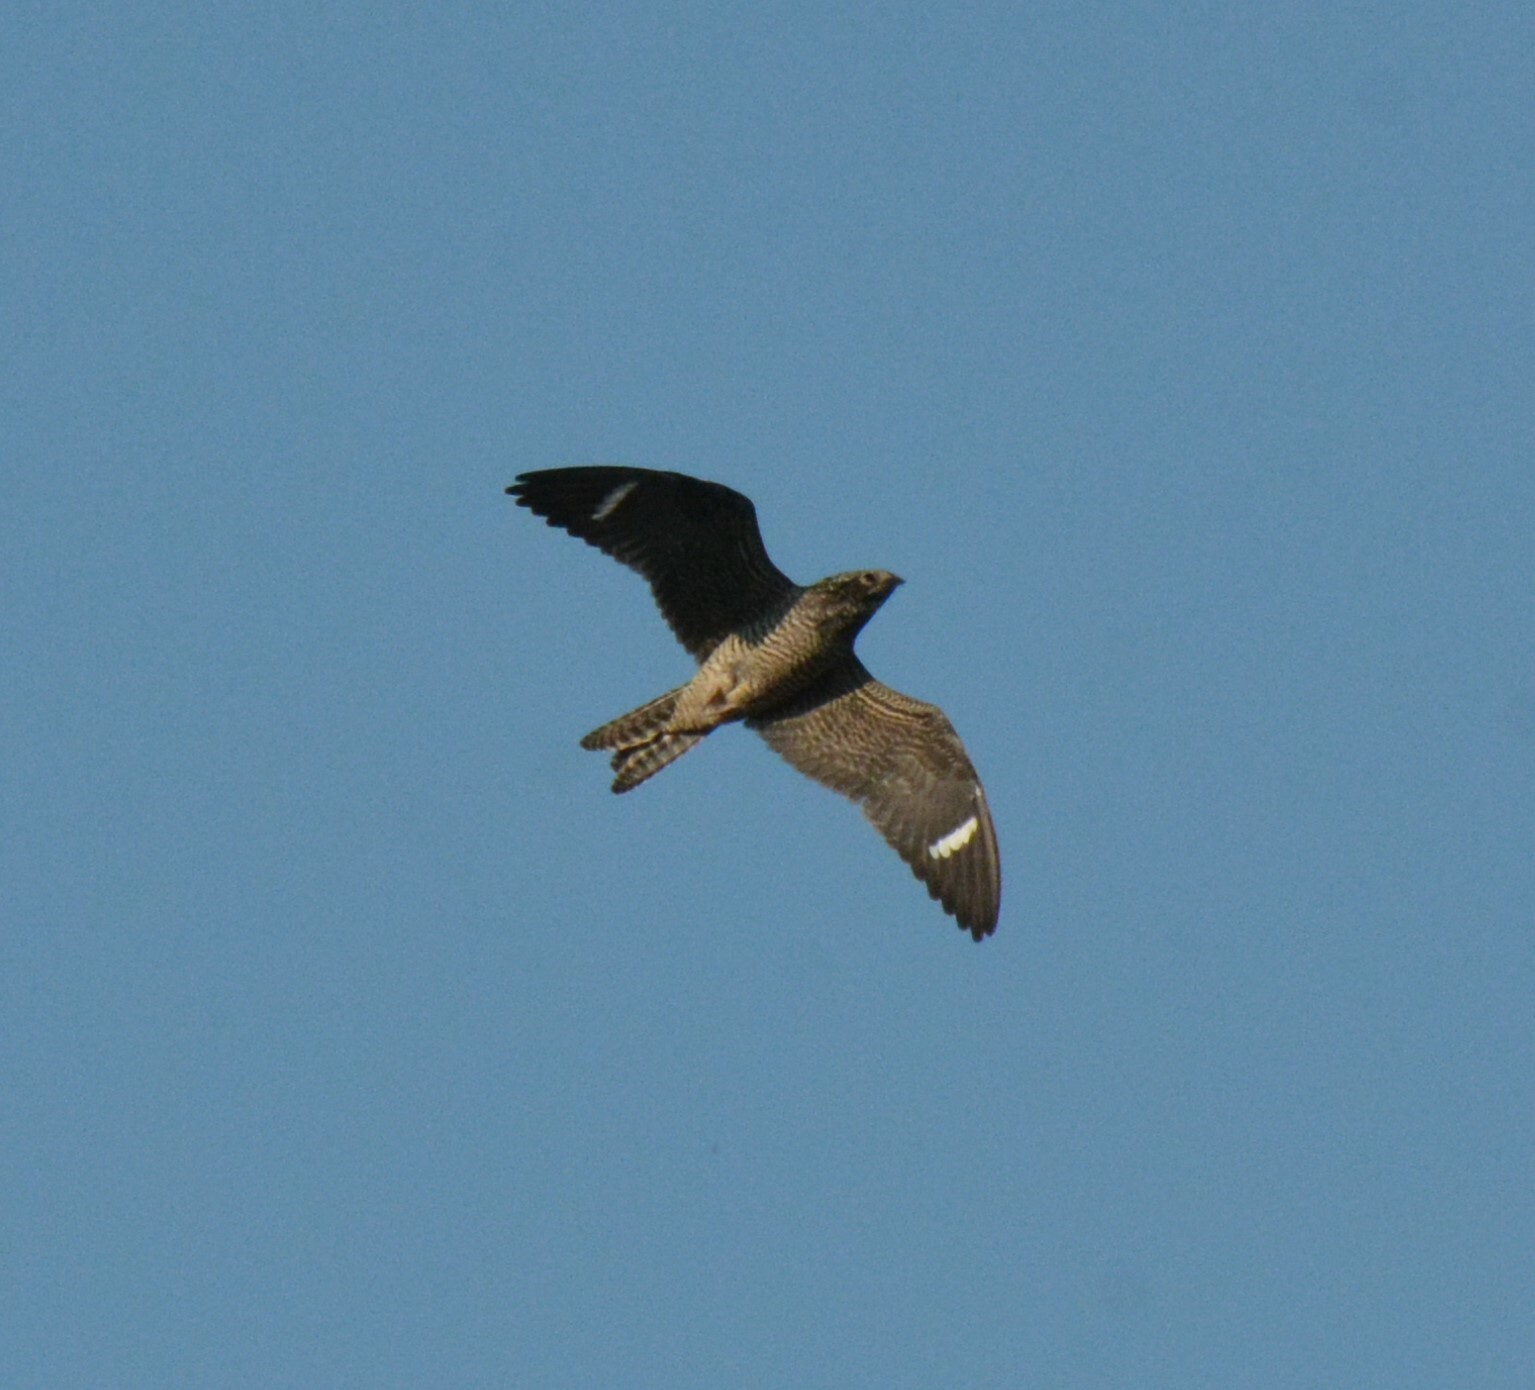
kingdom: Animalia
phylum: Chordata
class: Aves
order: Caprimulgiformes
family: Caprimulgidae
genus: Chordeiles
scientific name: Chordeiles minor
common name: Common nighthawk
